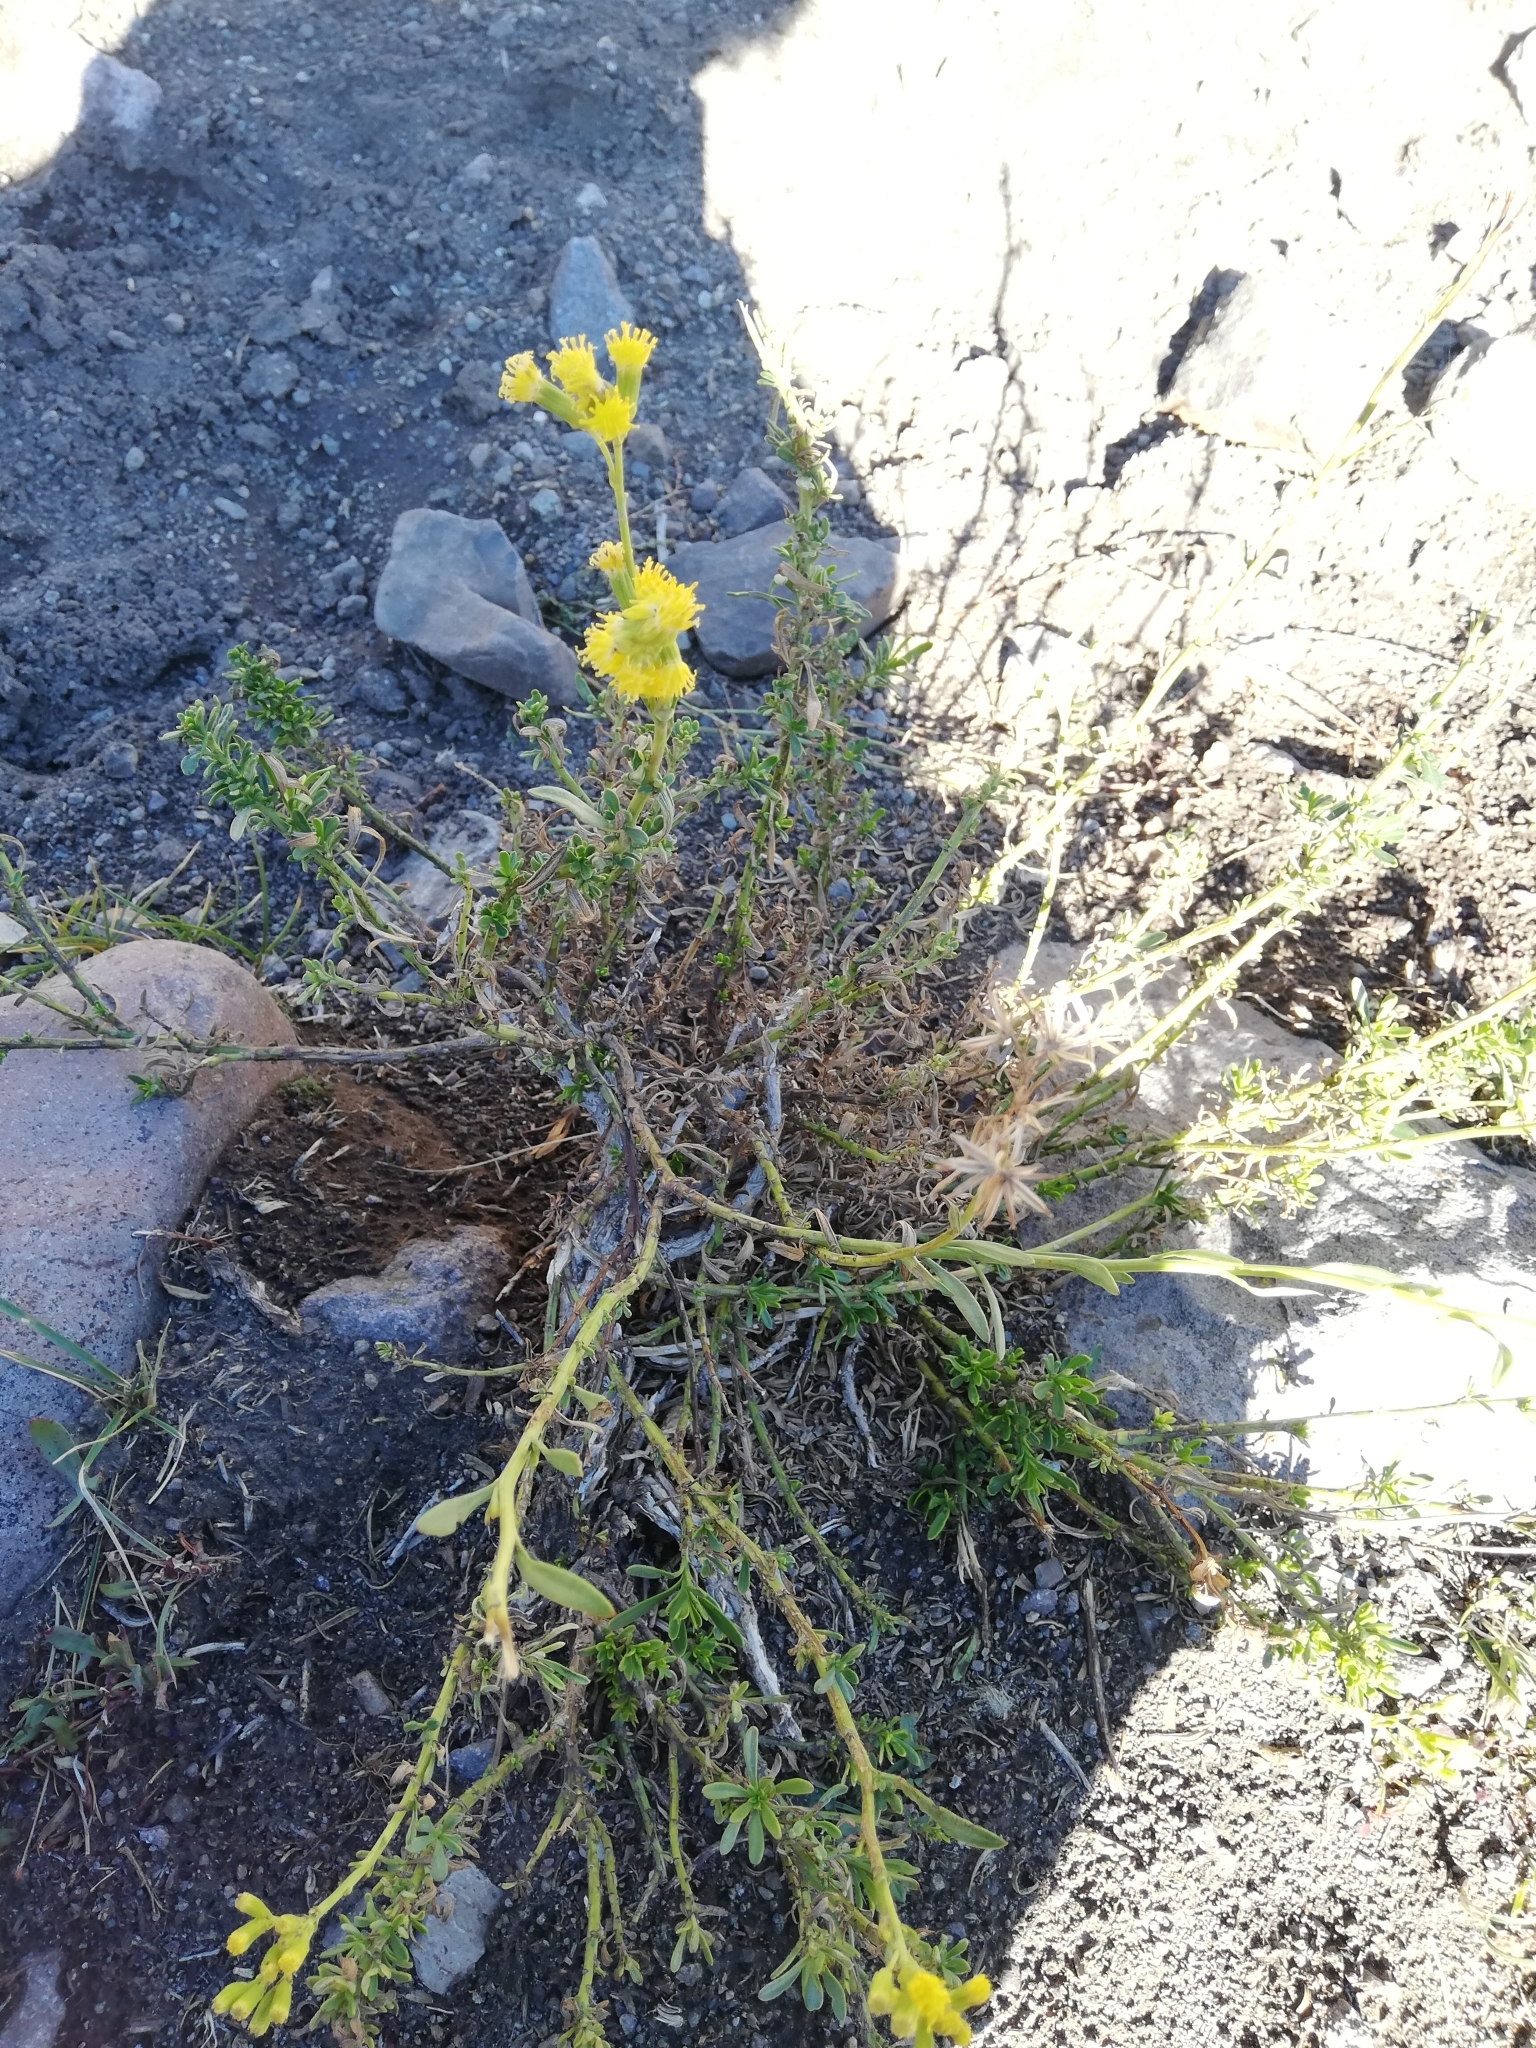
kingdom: Plantae
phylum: Tracheophyta
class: Magnoliopsida
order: Asterales
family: Asteraceae
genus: Senecio
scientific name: Senecio subumbellatus
